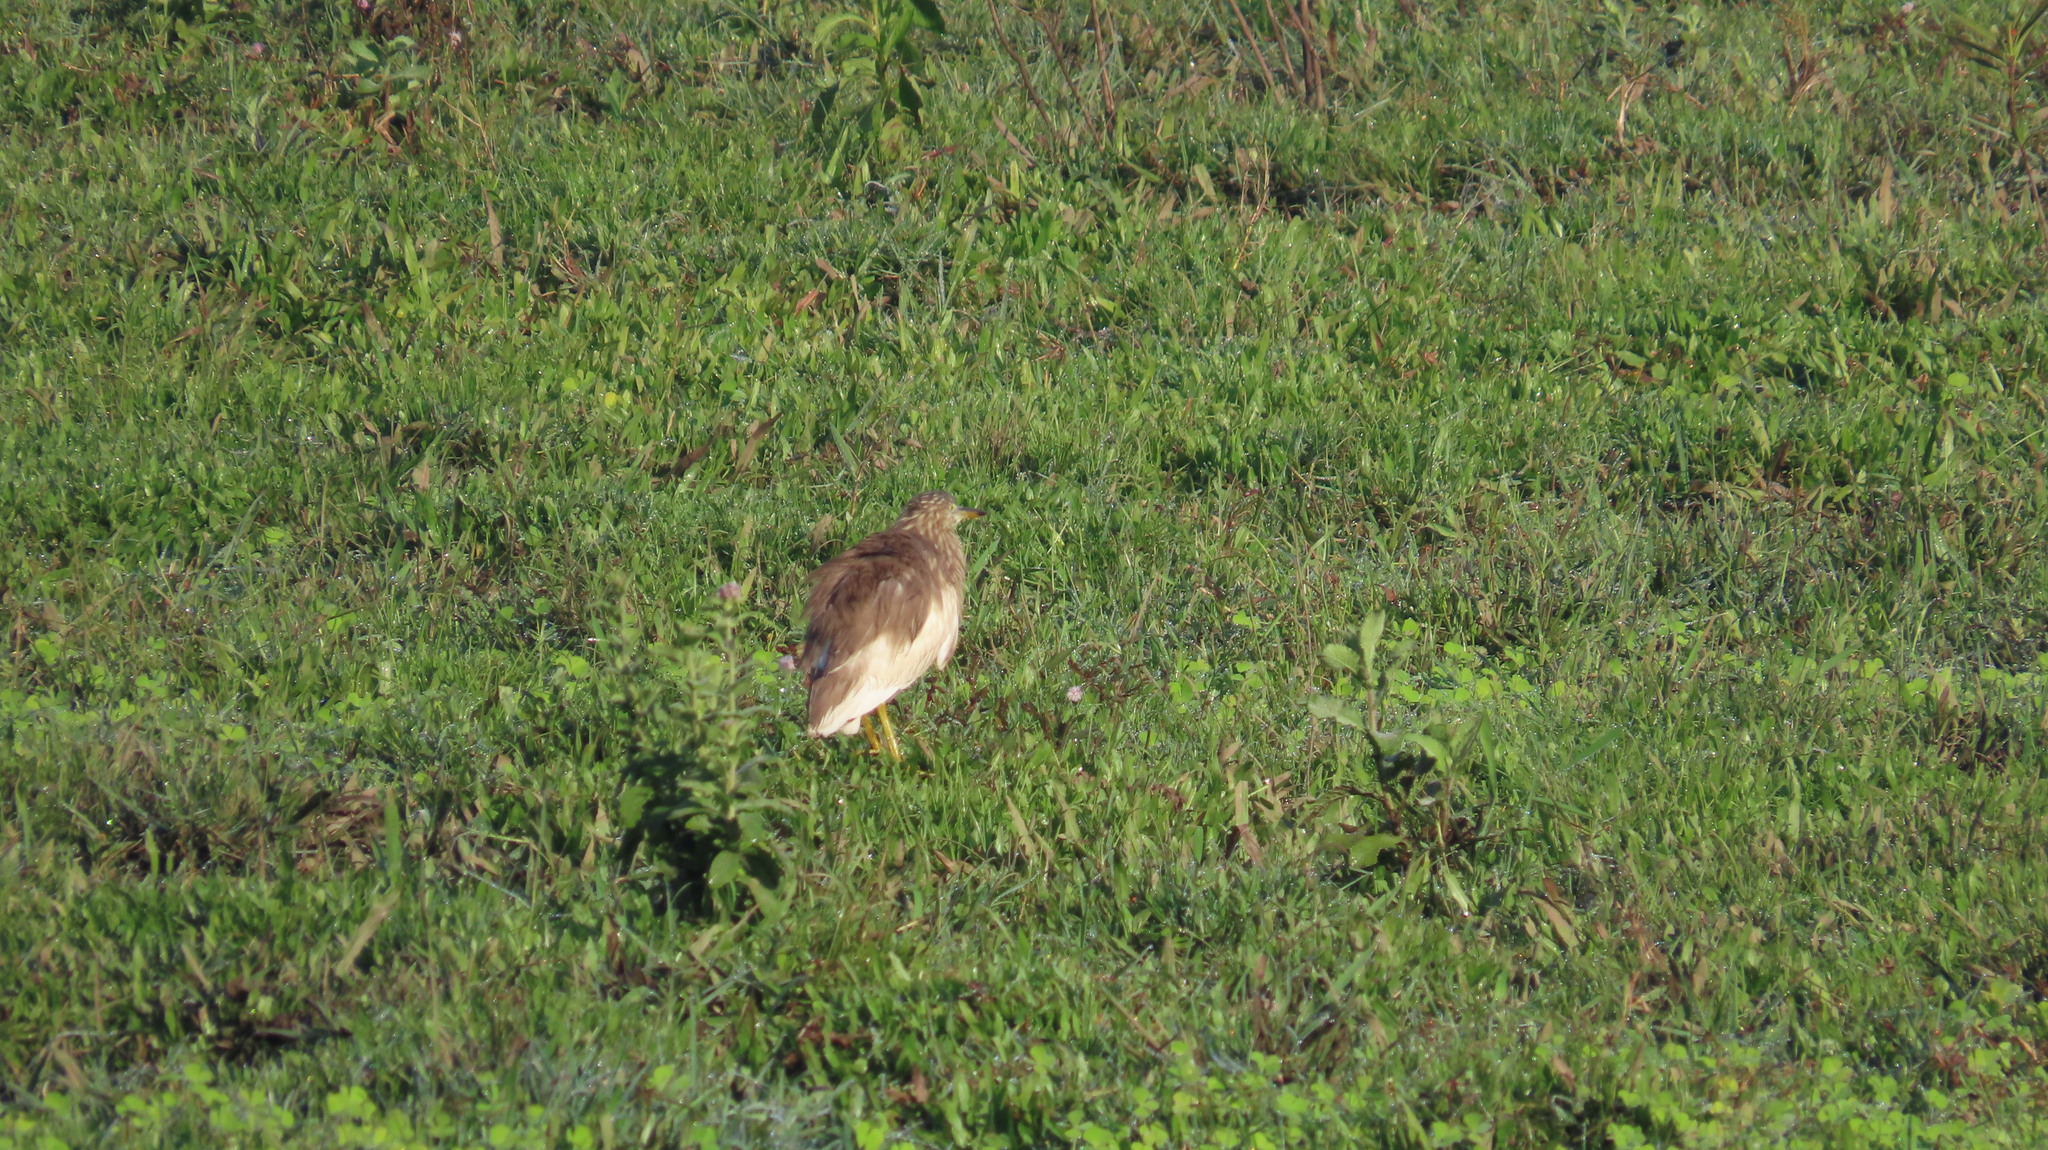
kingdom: Animalia
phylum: Chordata
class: Aves
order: Pelecaniformes
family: Ardeidae
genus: Ardeola
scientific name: Ardeola grayii
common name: Indian pond heron
